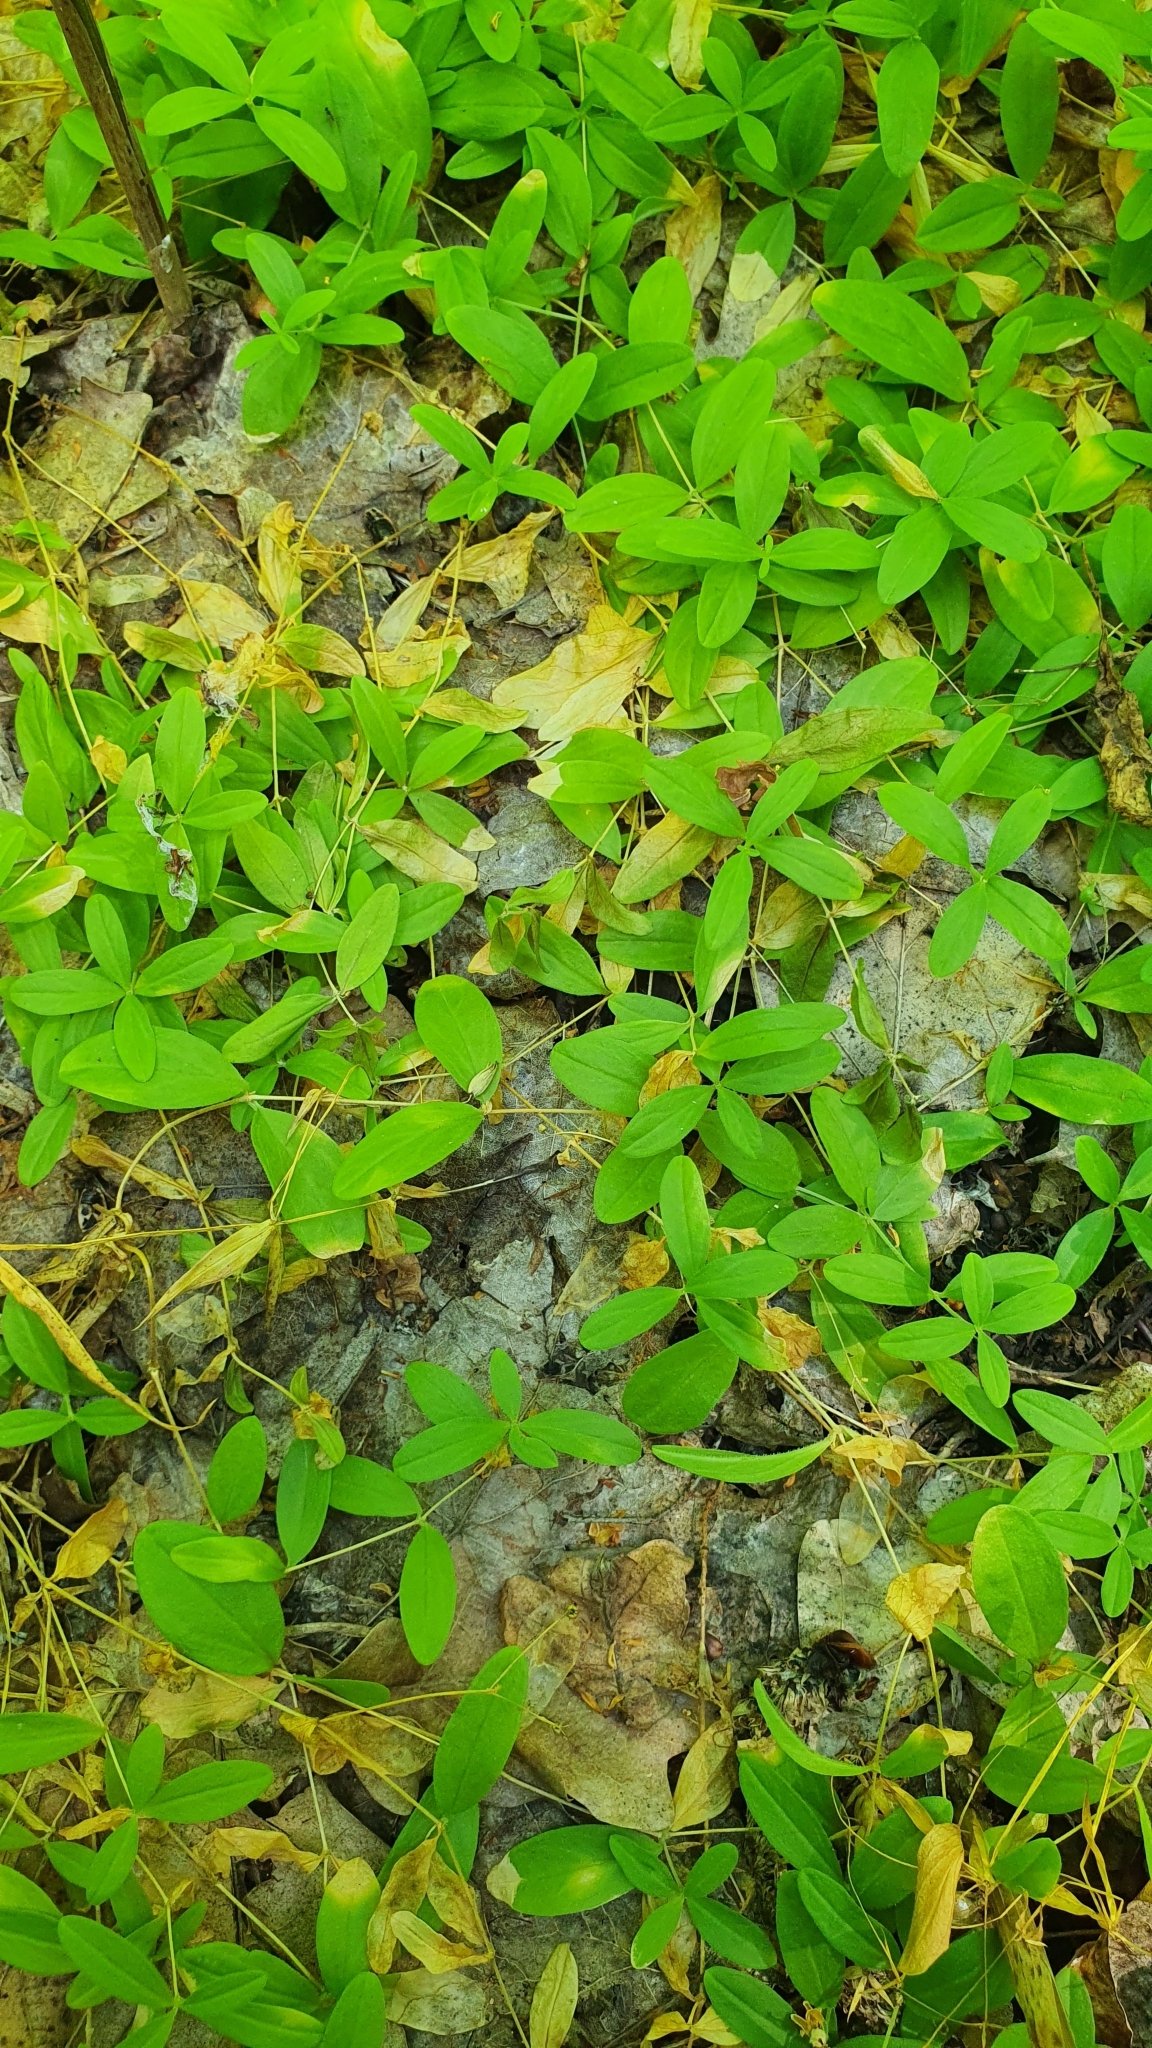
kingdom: Plantae
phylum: Tracheophyta
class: Magnoliopsida
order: Caryophyllales
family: Caryophyllaceae
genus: Moehringia
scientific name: Moehringia lateriflora
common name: Blunt-leaved sandwort
